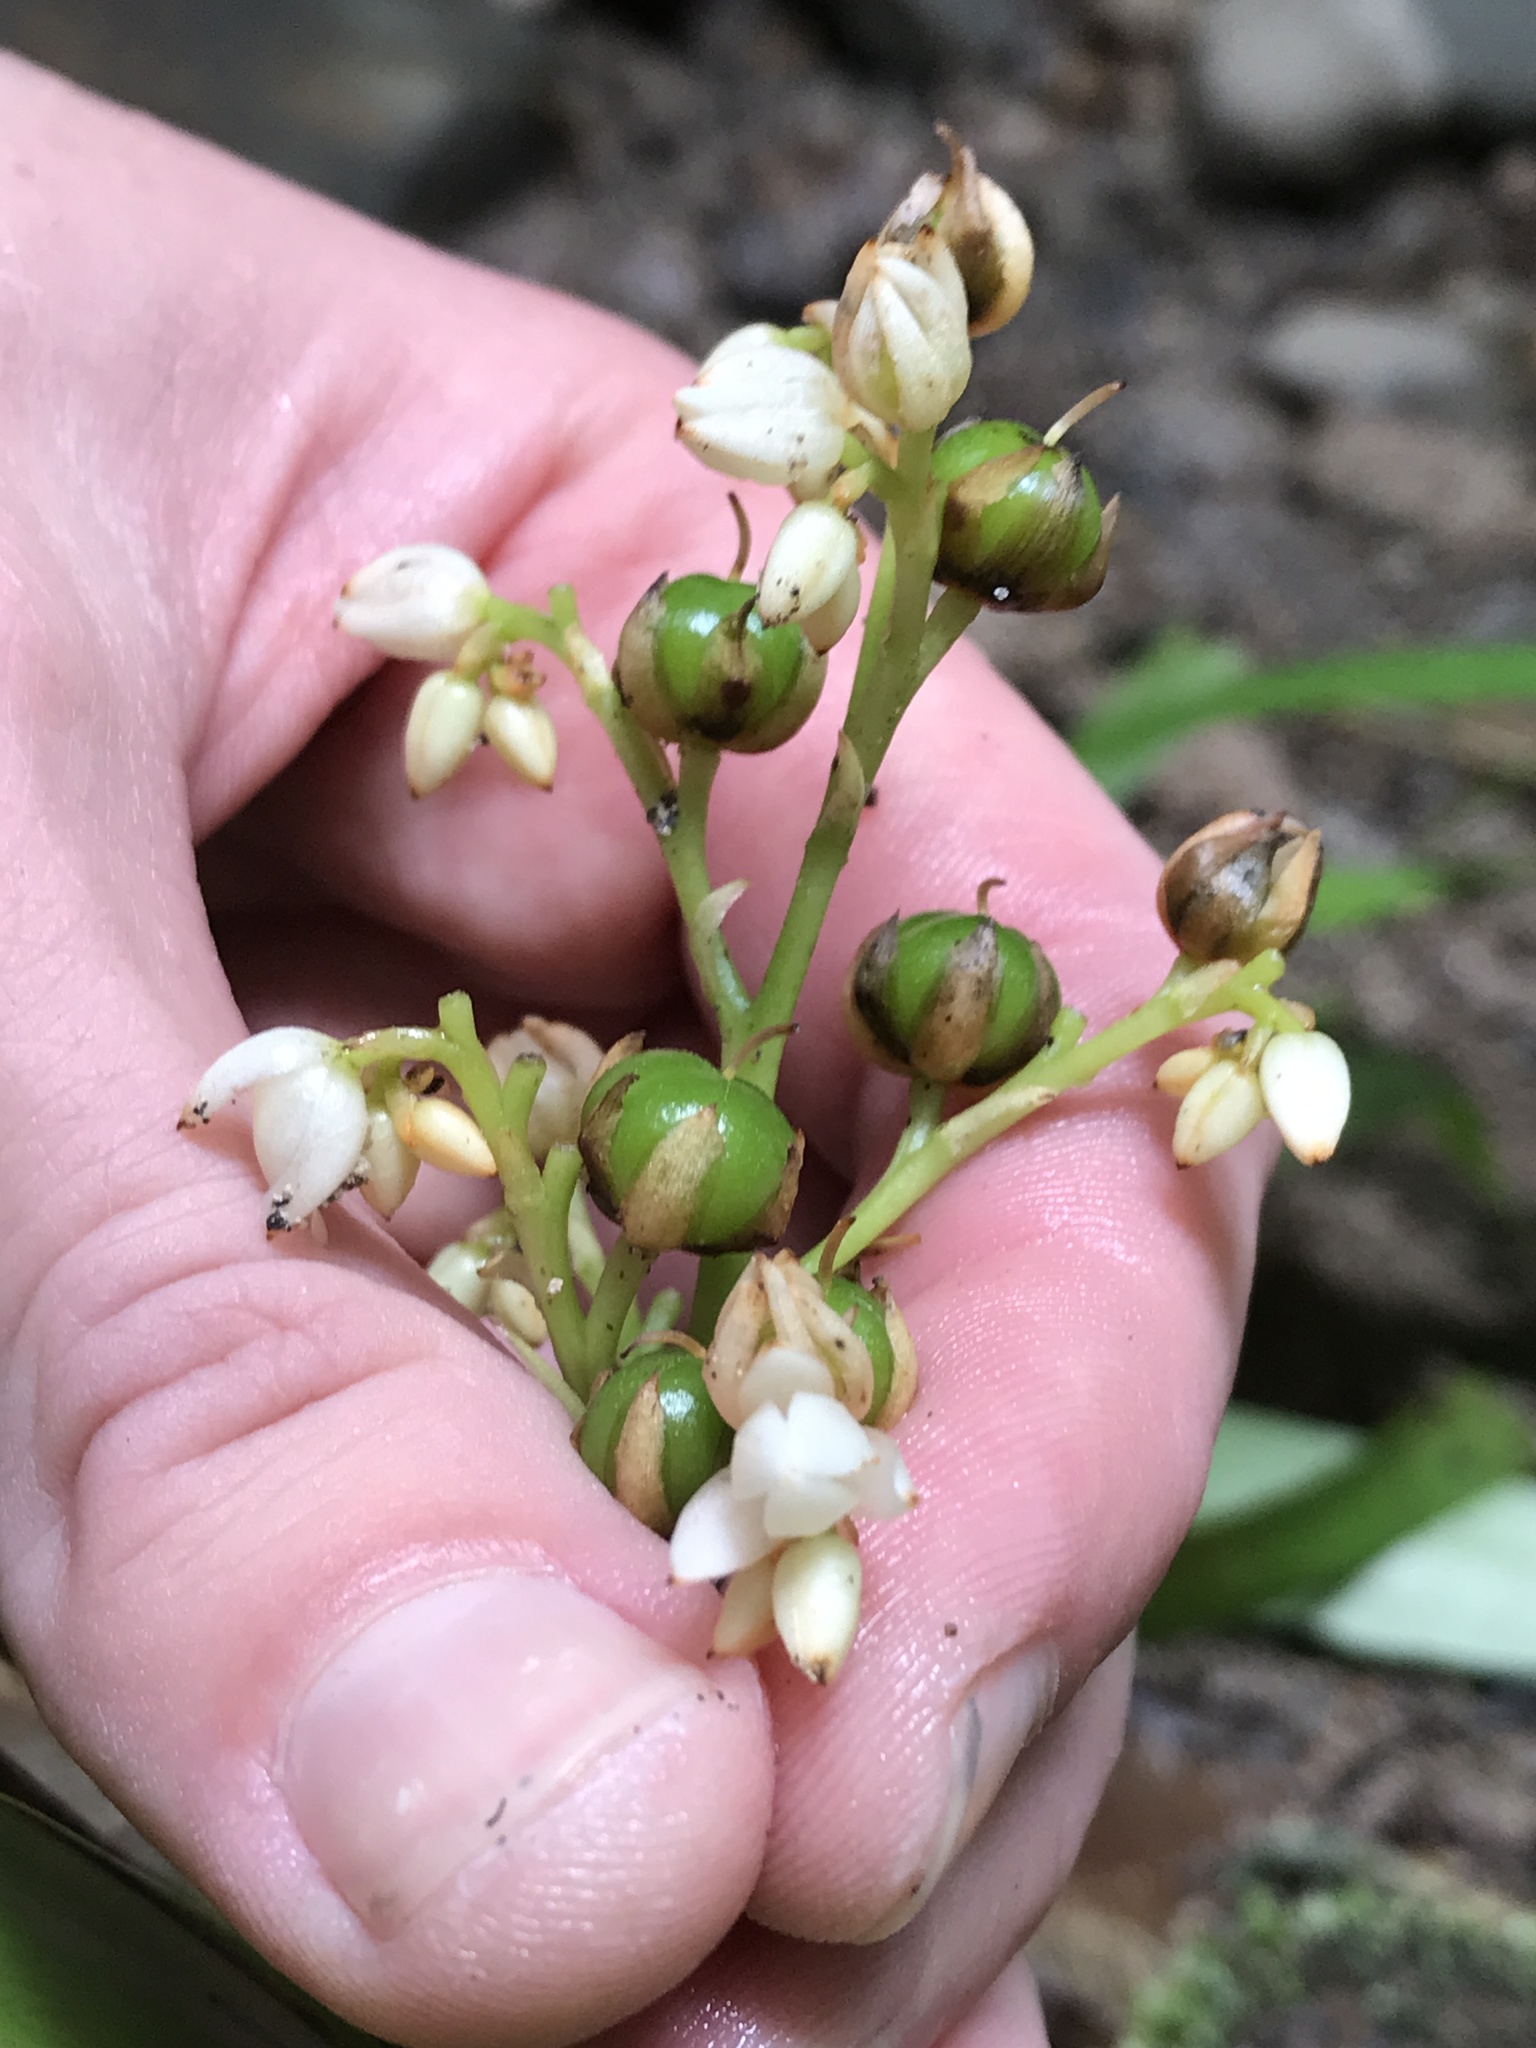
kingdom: Plantae
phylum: Tracheophyta
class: Liliopsida
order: Commelinales
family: Haemodoraceae
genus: Xiphidium
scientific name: Xiphidium caeruleum
